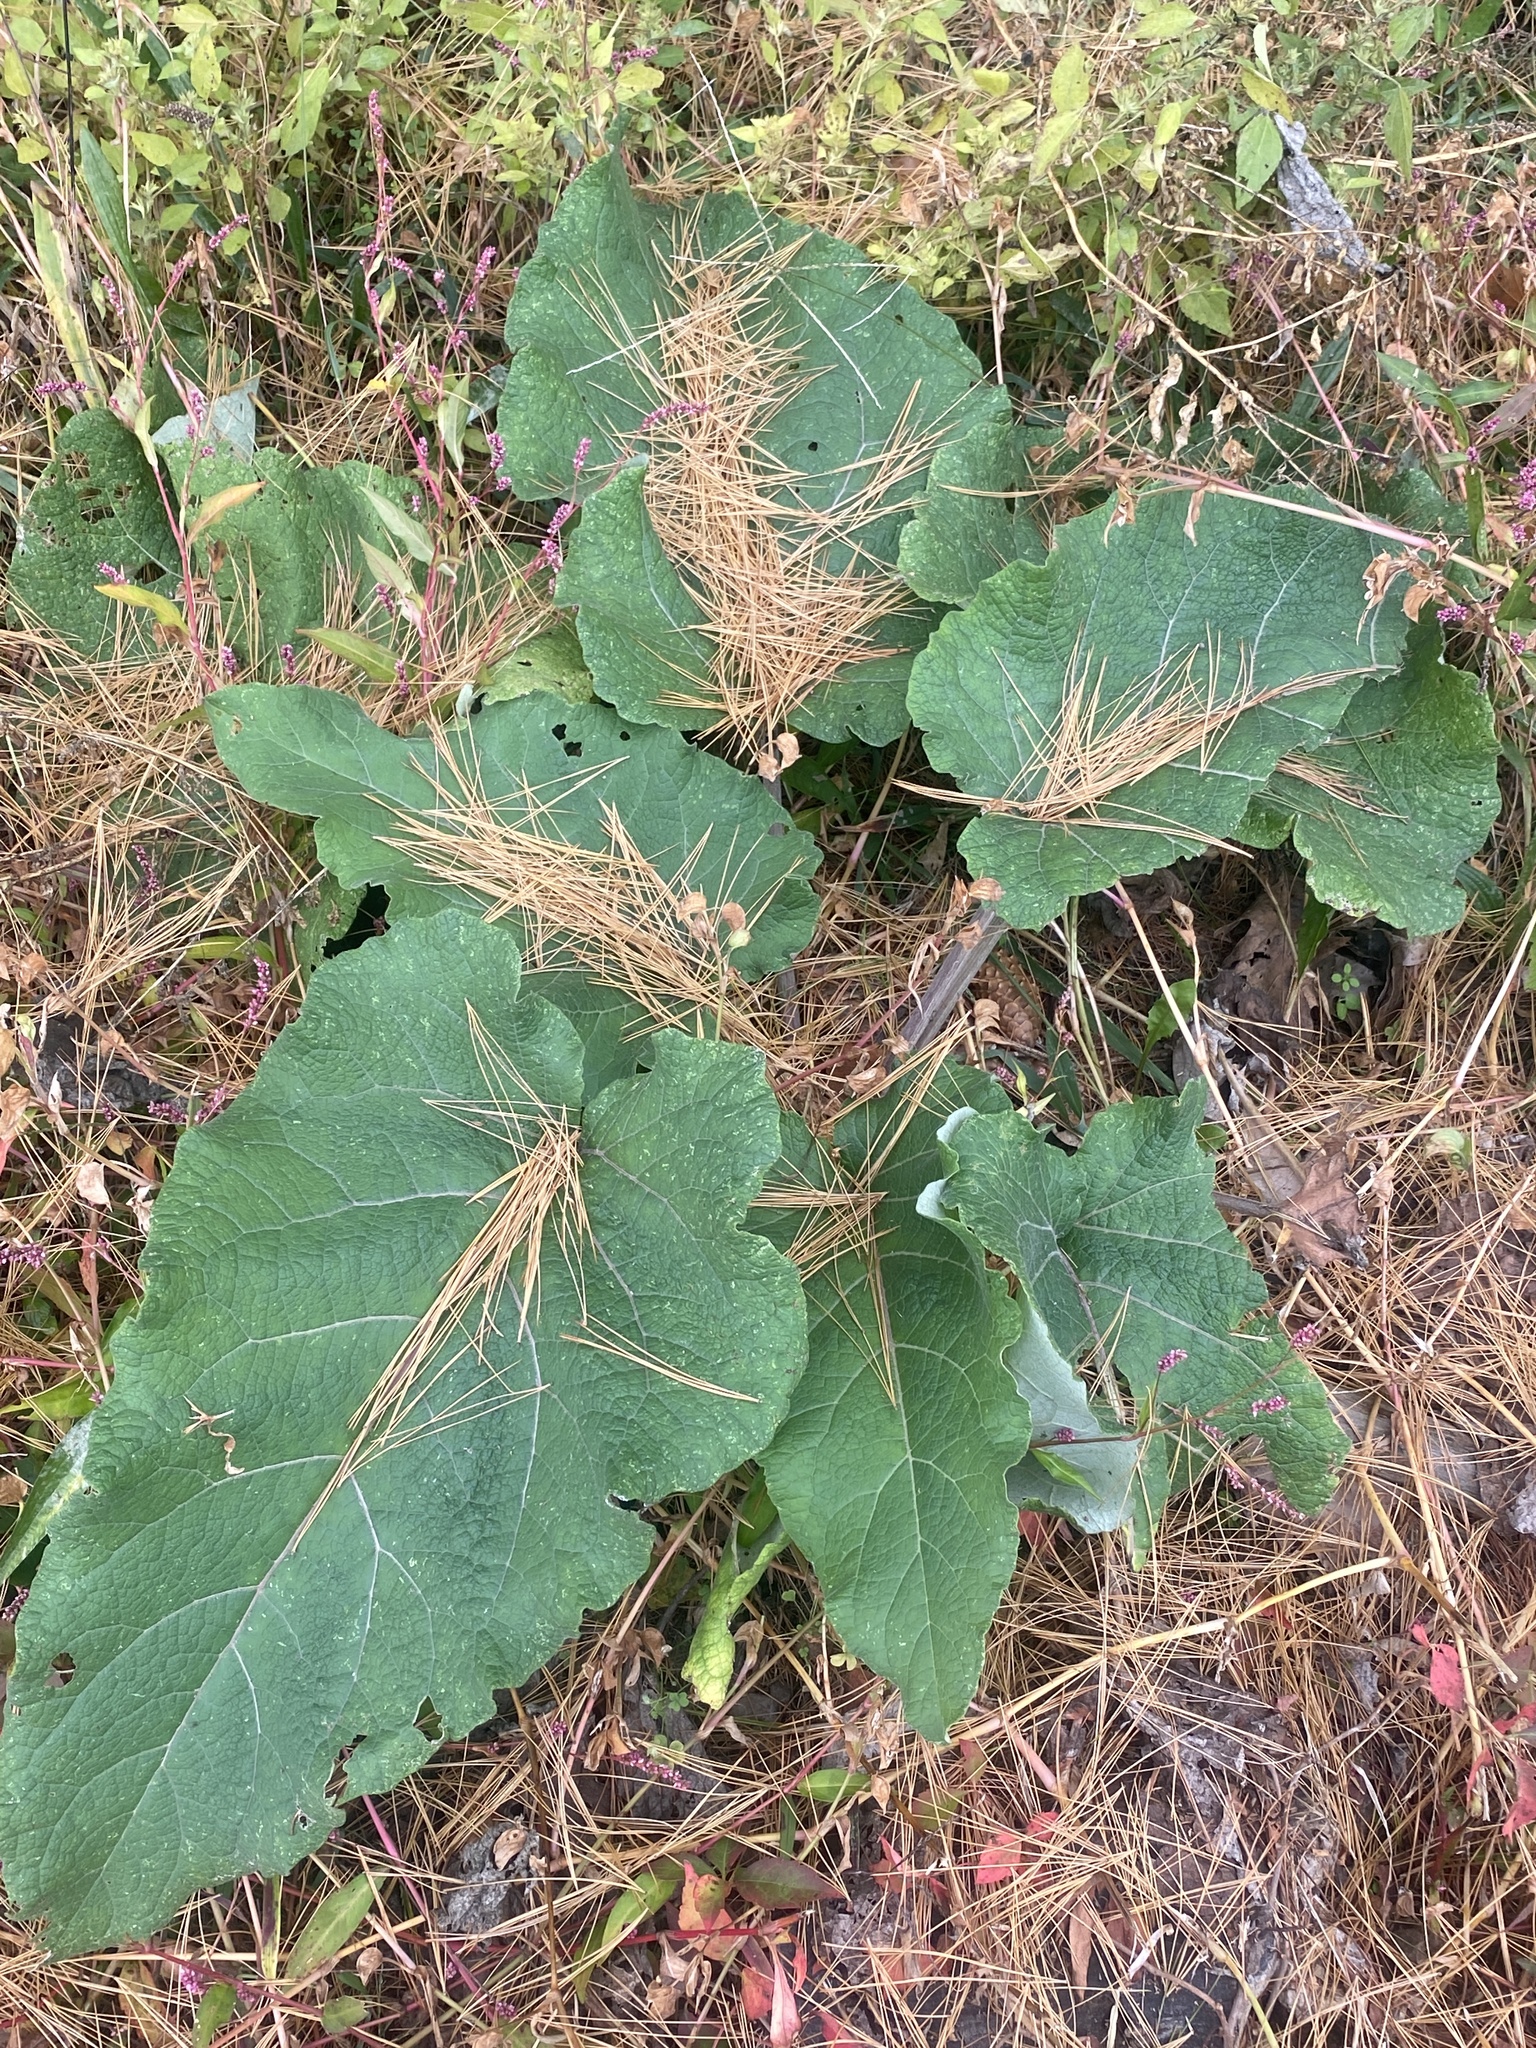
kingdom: Plantae
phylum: Tracheophyta
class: Magnoliopsida
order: Asterales
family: Asteraceae
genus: Arctium
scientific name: Arctium
